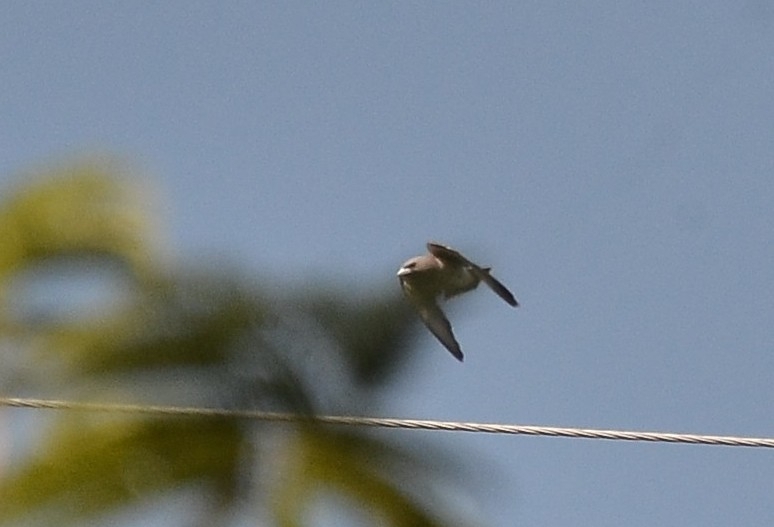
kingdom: Animalia
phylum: Chordata
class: Aves
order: Passeriformes
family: Artamidae
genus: Artamus
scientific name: Artamus fuscus
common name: Ashy woodswallow
